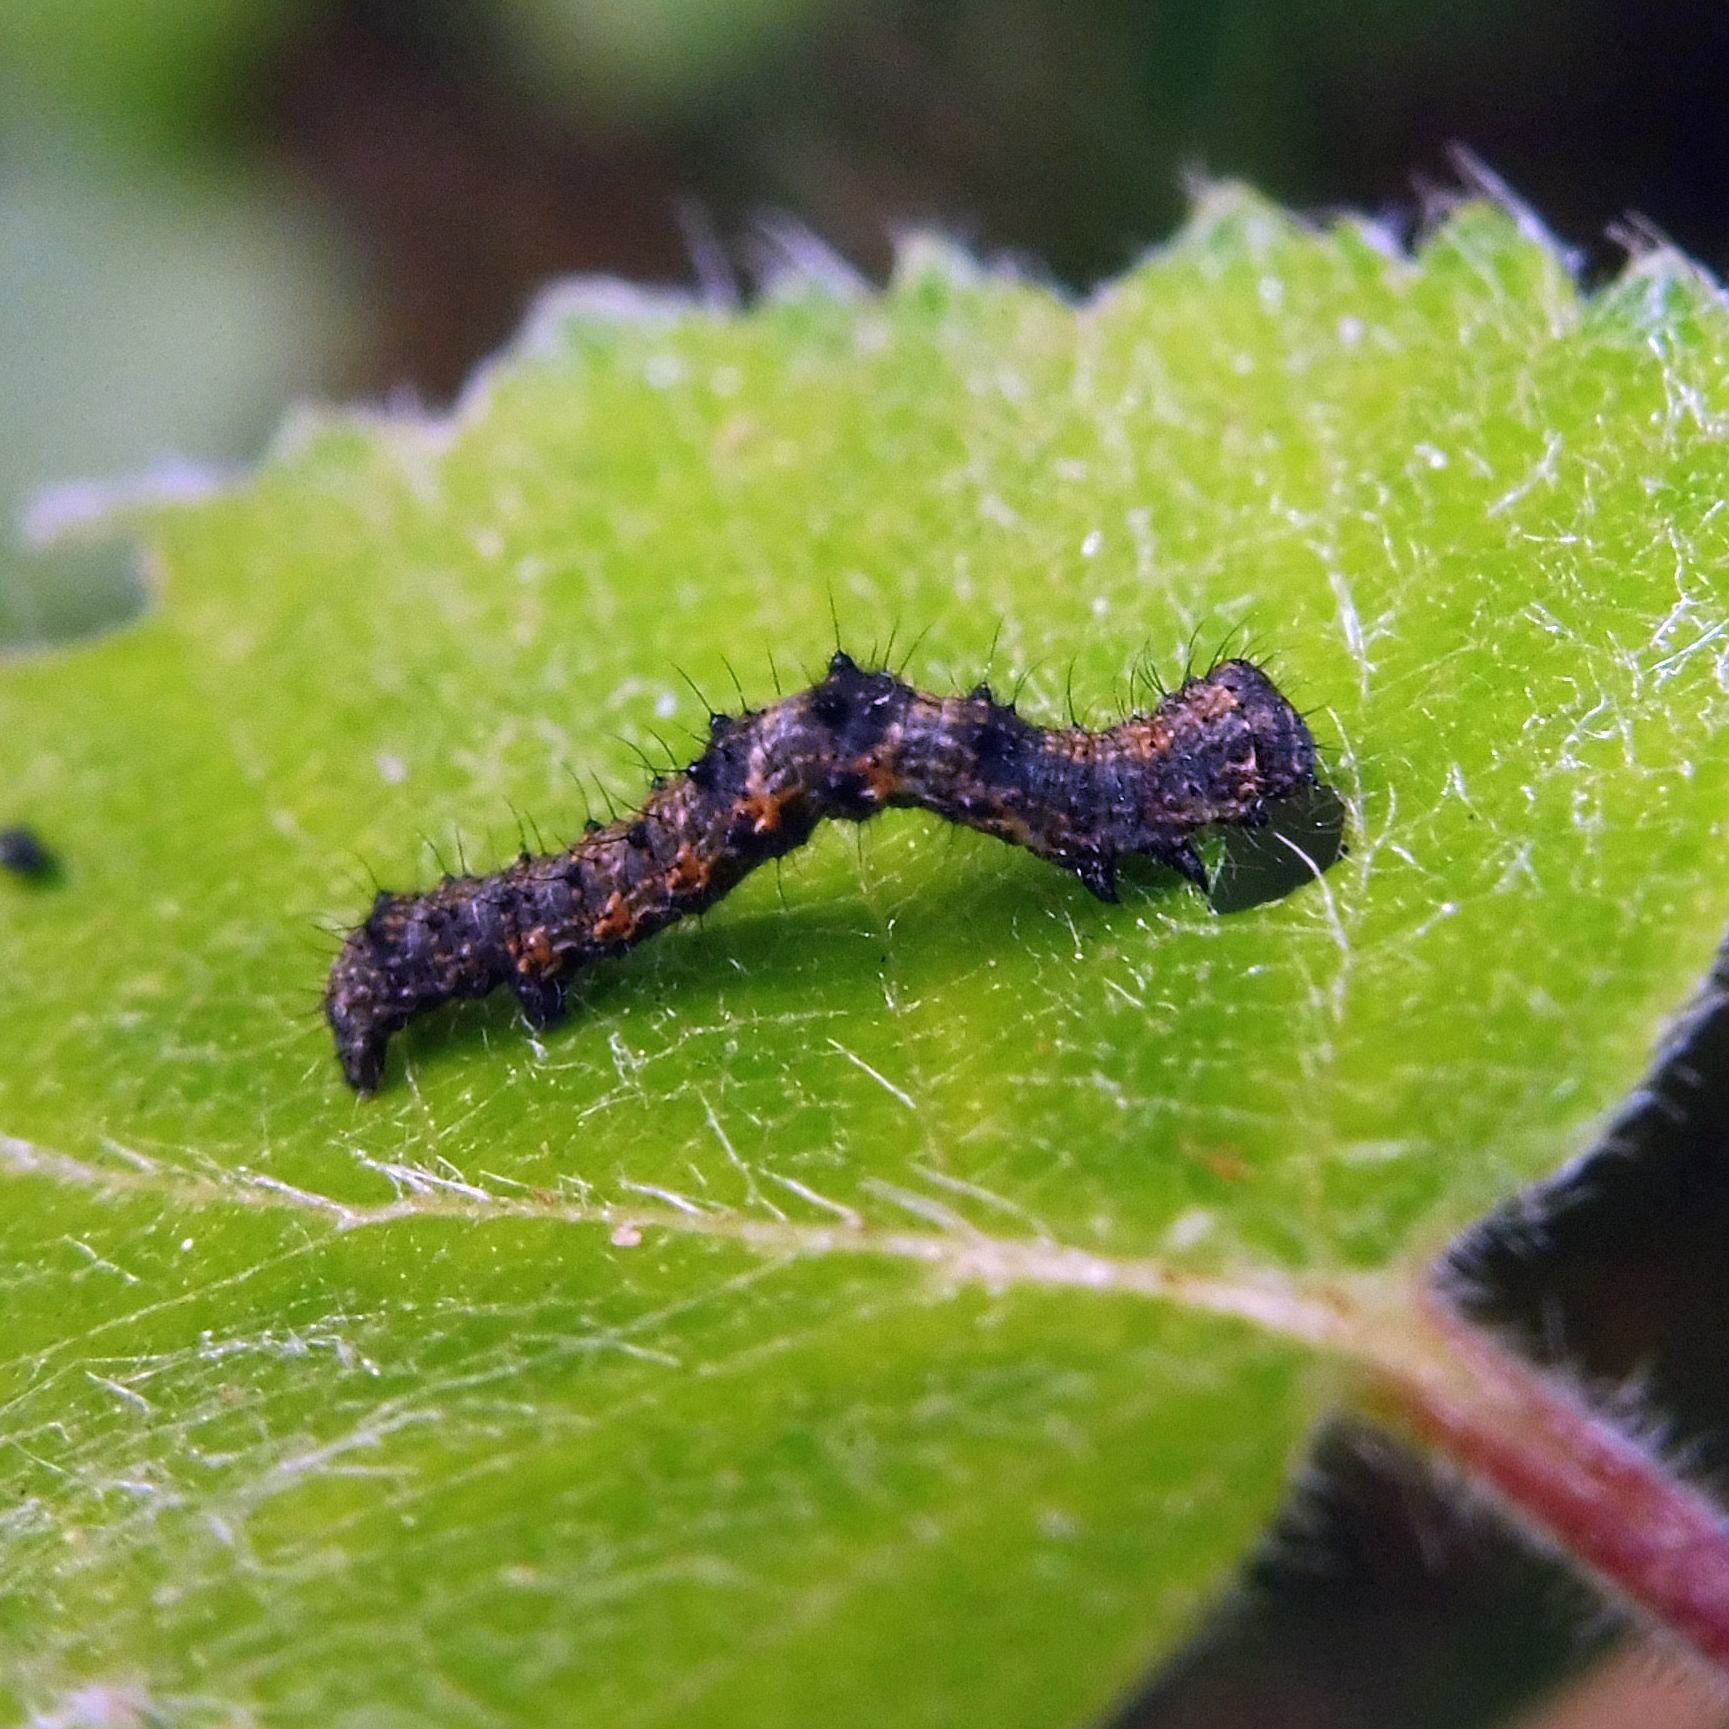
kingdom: Animalia
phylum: Arthropoda
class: Insecta
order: Lepidoptera
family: Geometridae
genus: Phigalia
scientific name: Phigalia pilosaria
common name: Pale brindled beauty
